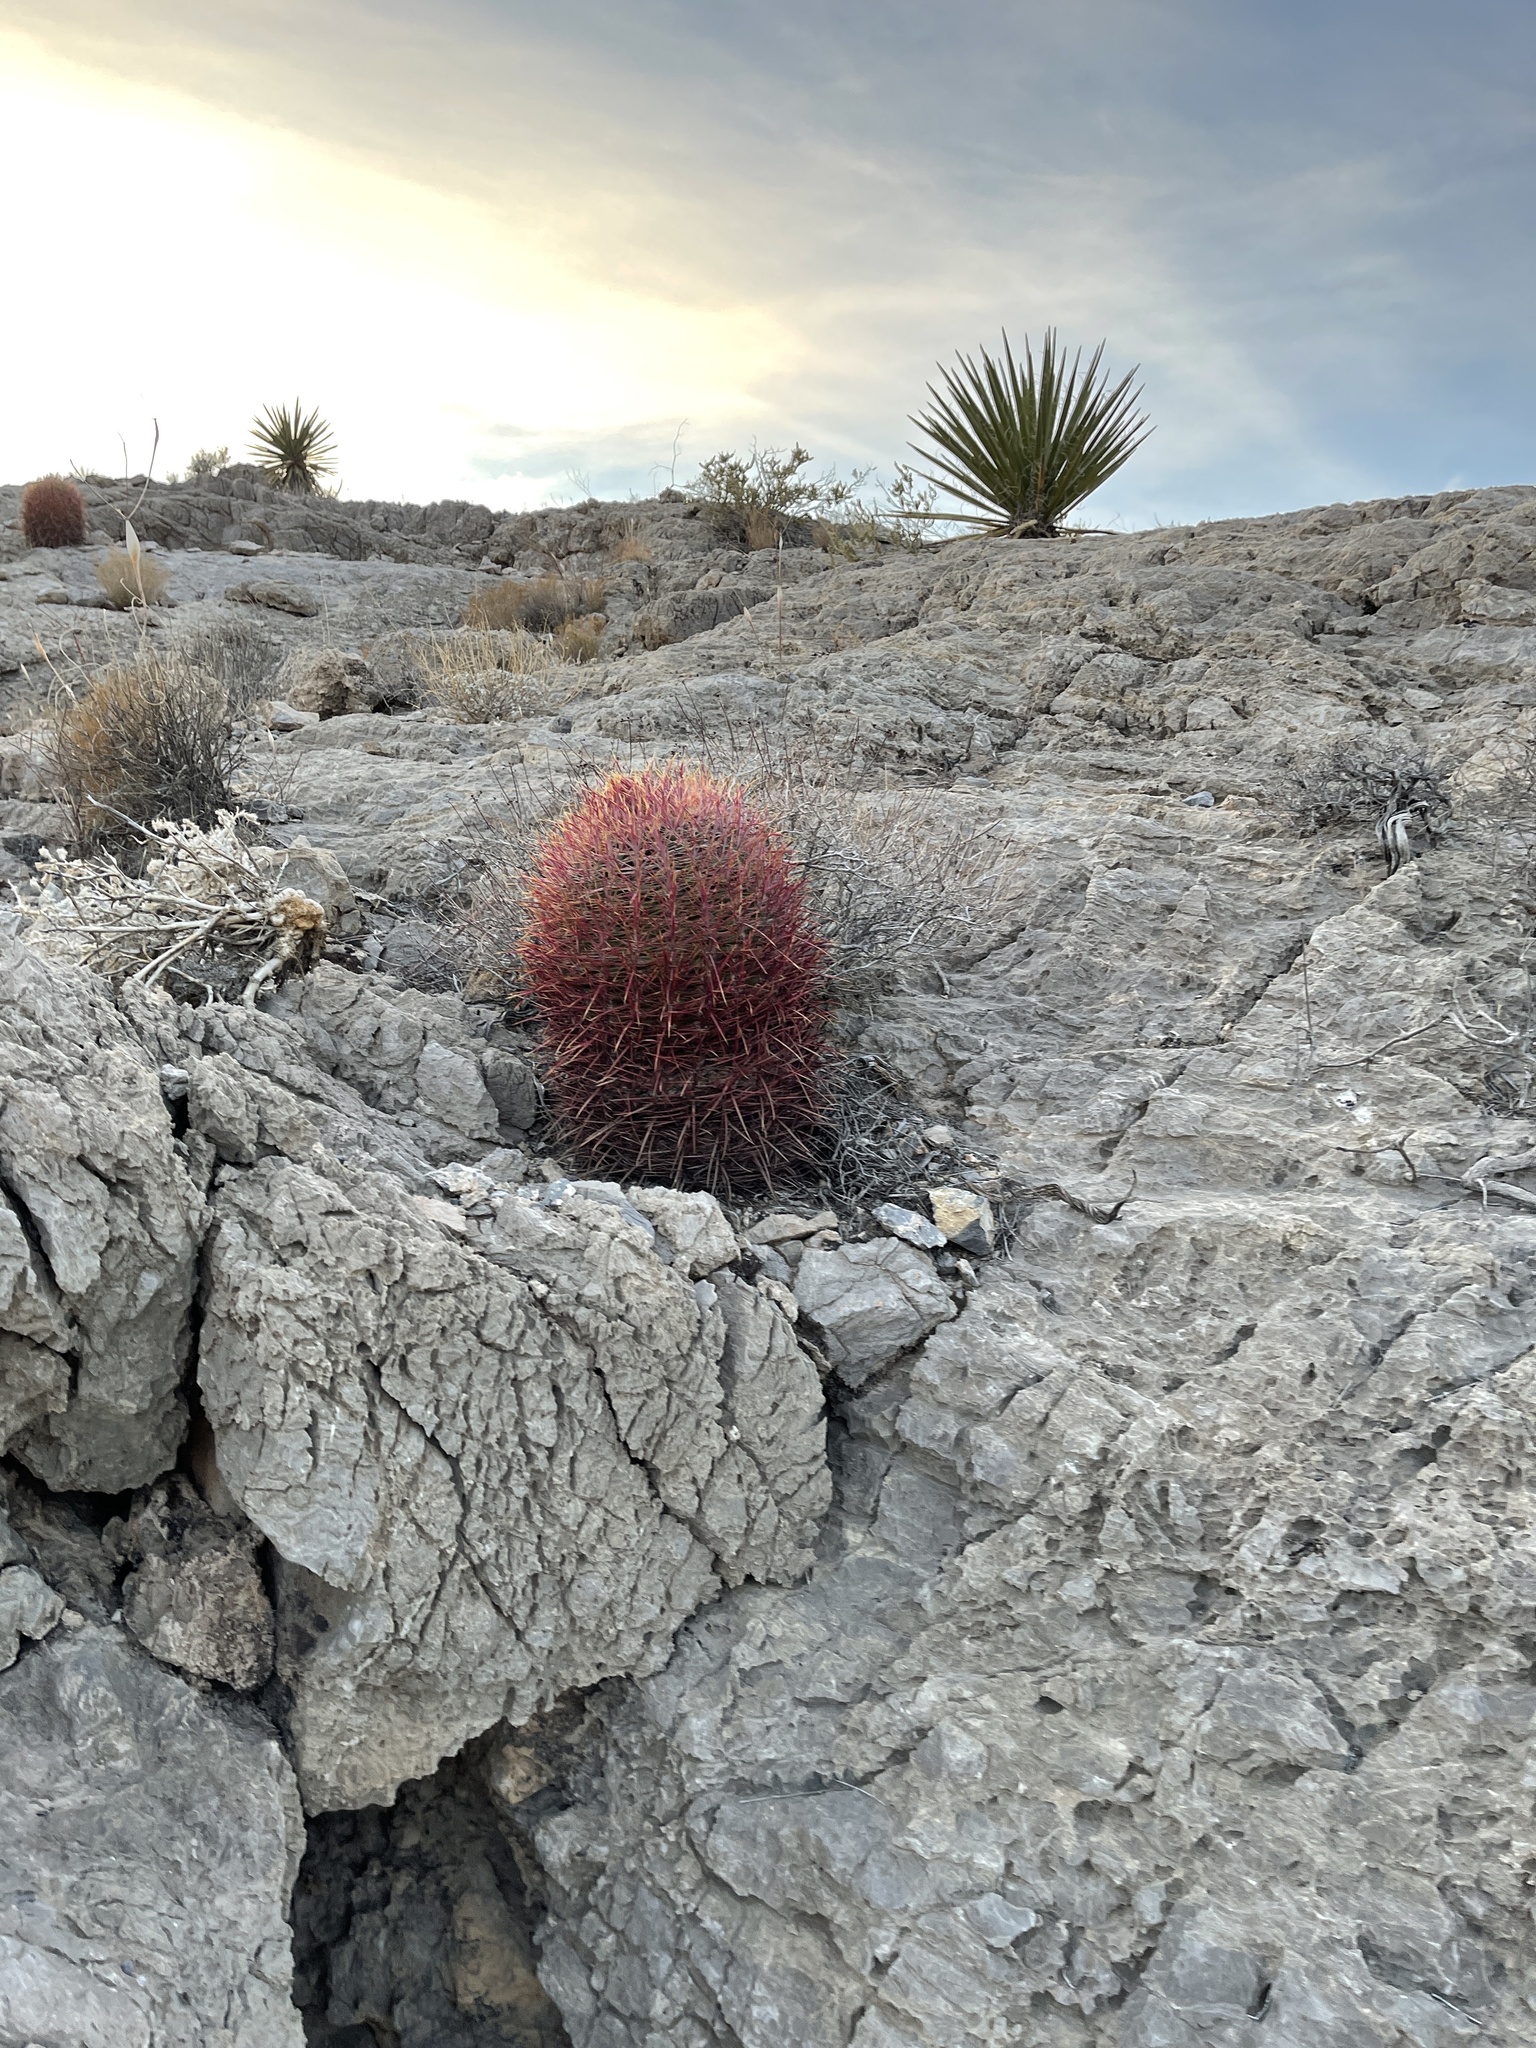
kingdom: Plantae
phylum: Tracheophyta
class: Magnoliopsida
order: Caryophyllales
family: Cactaceae
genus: Ferocactus
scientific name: Ferocactus cylindraceus
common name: California barrel cactus
